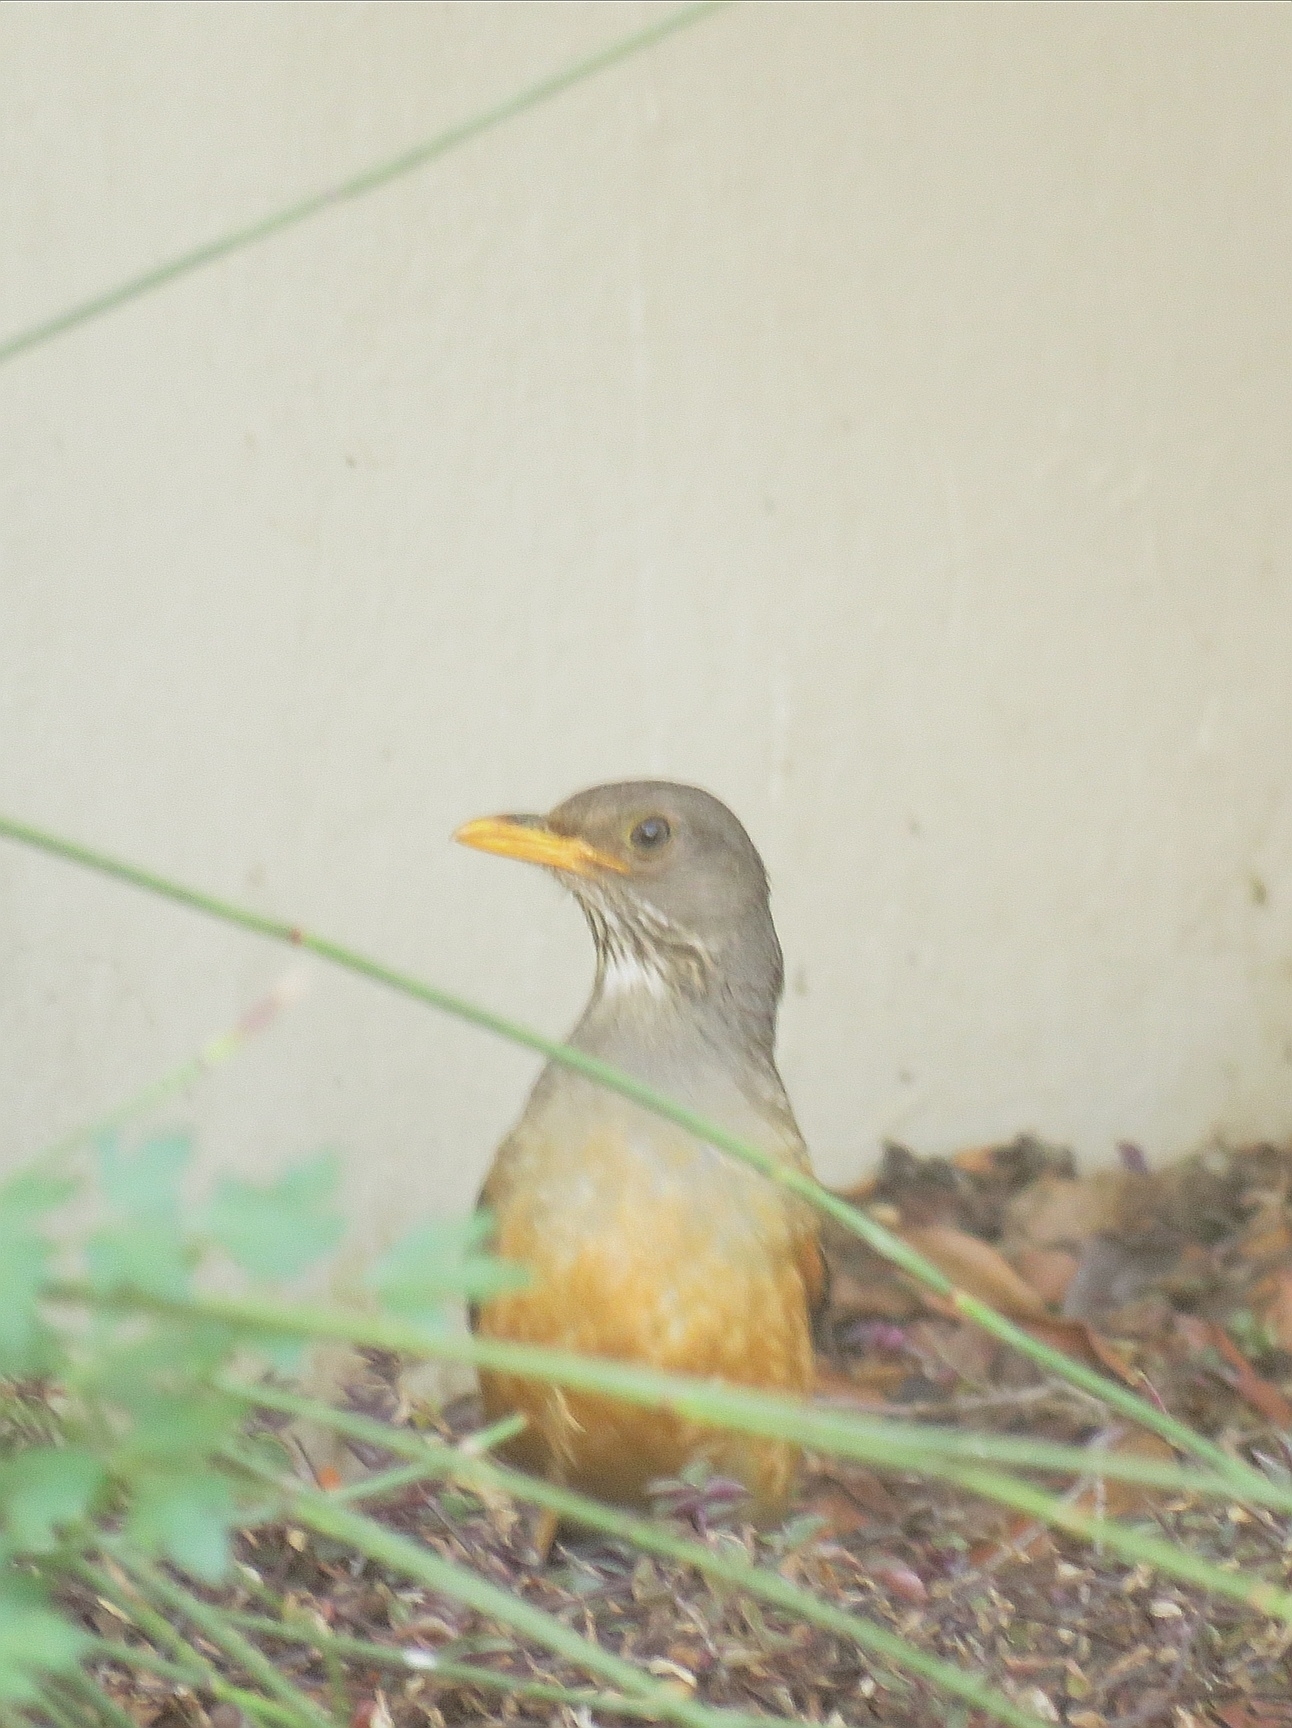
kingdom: Animalia
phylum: Chordata
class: Aves
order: Passeriformes
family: Turdidae
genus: Turdus
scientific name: Turdus olivaceus
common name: Olive thrush
